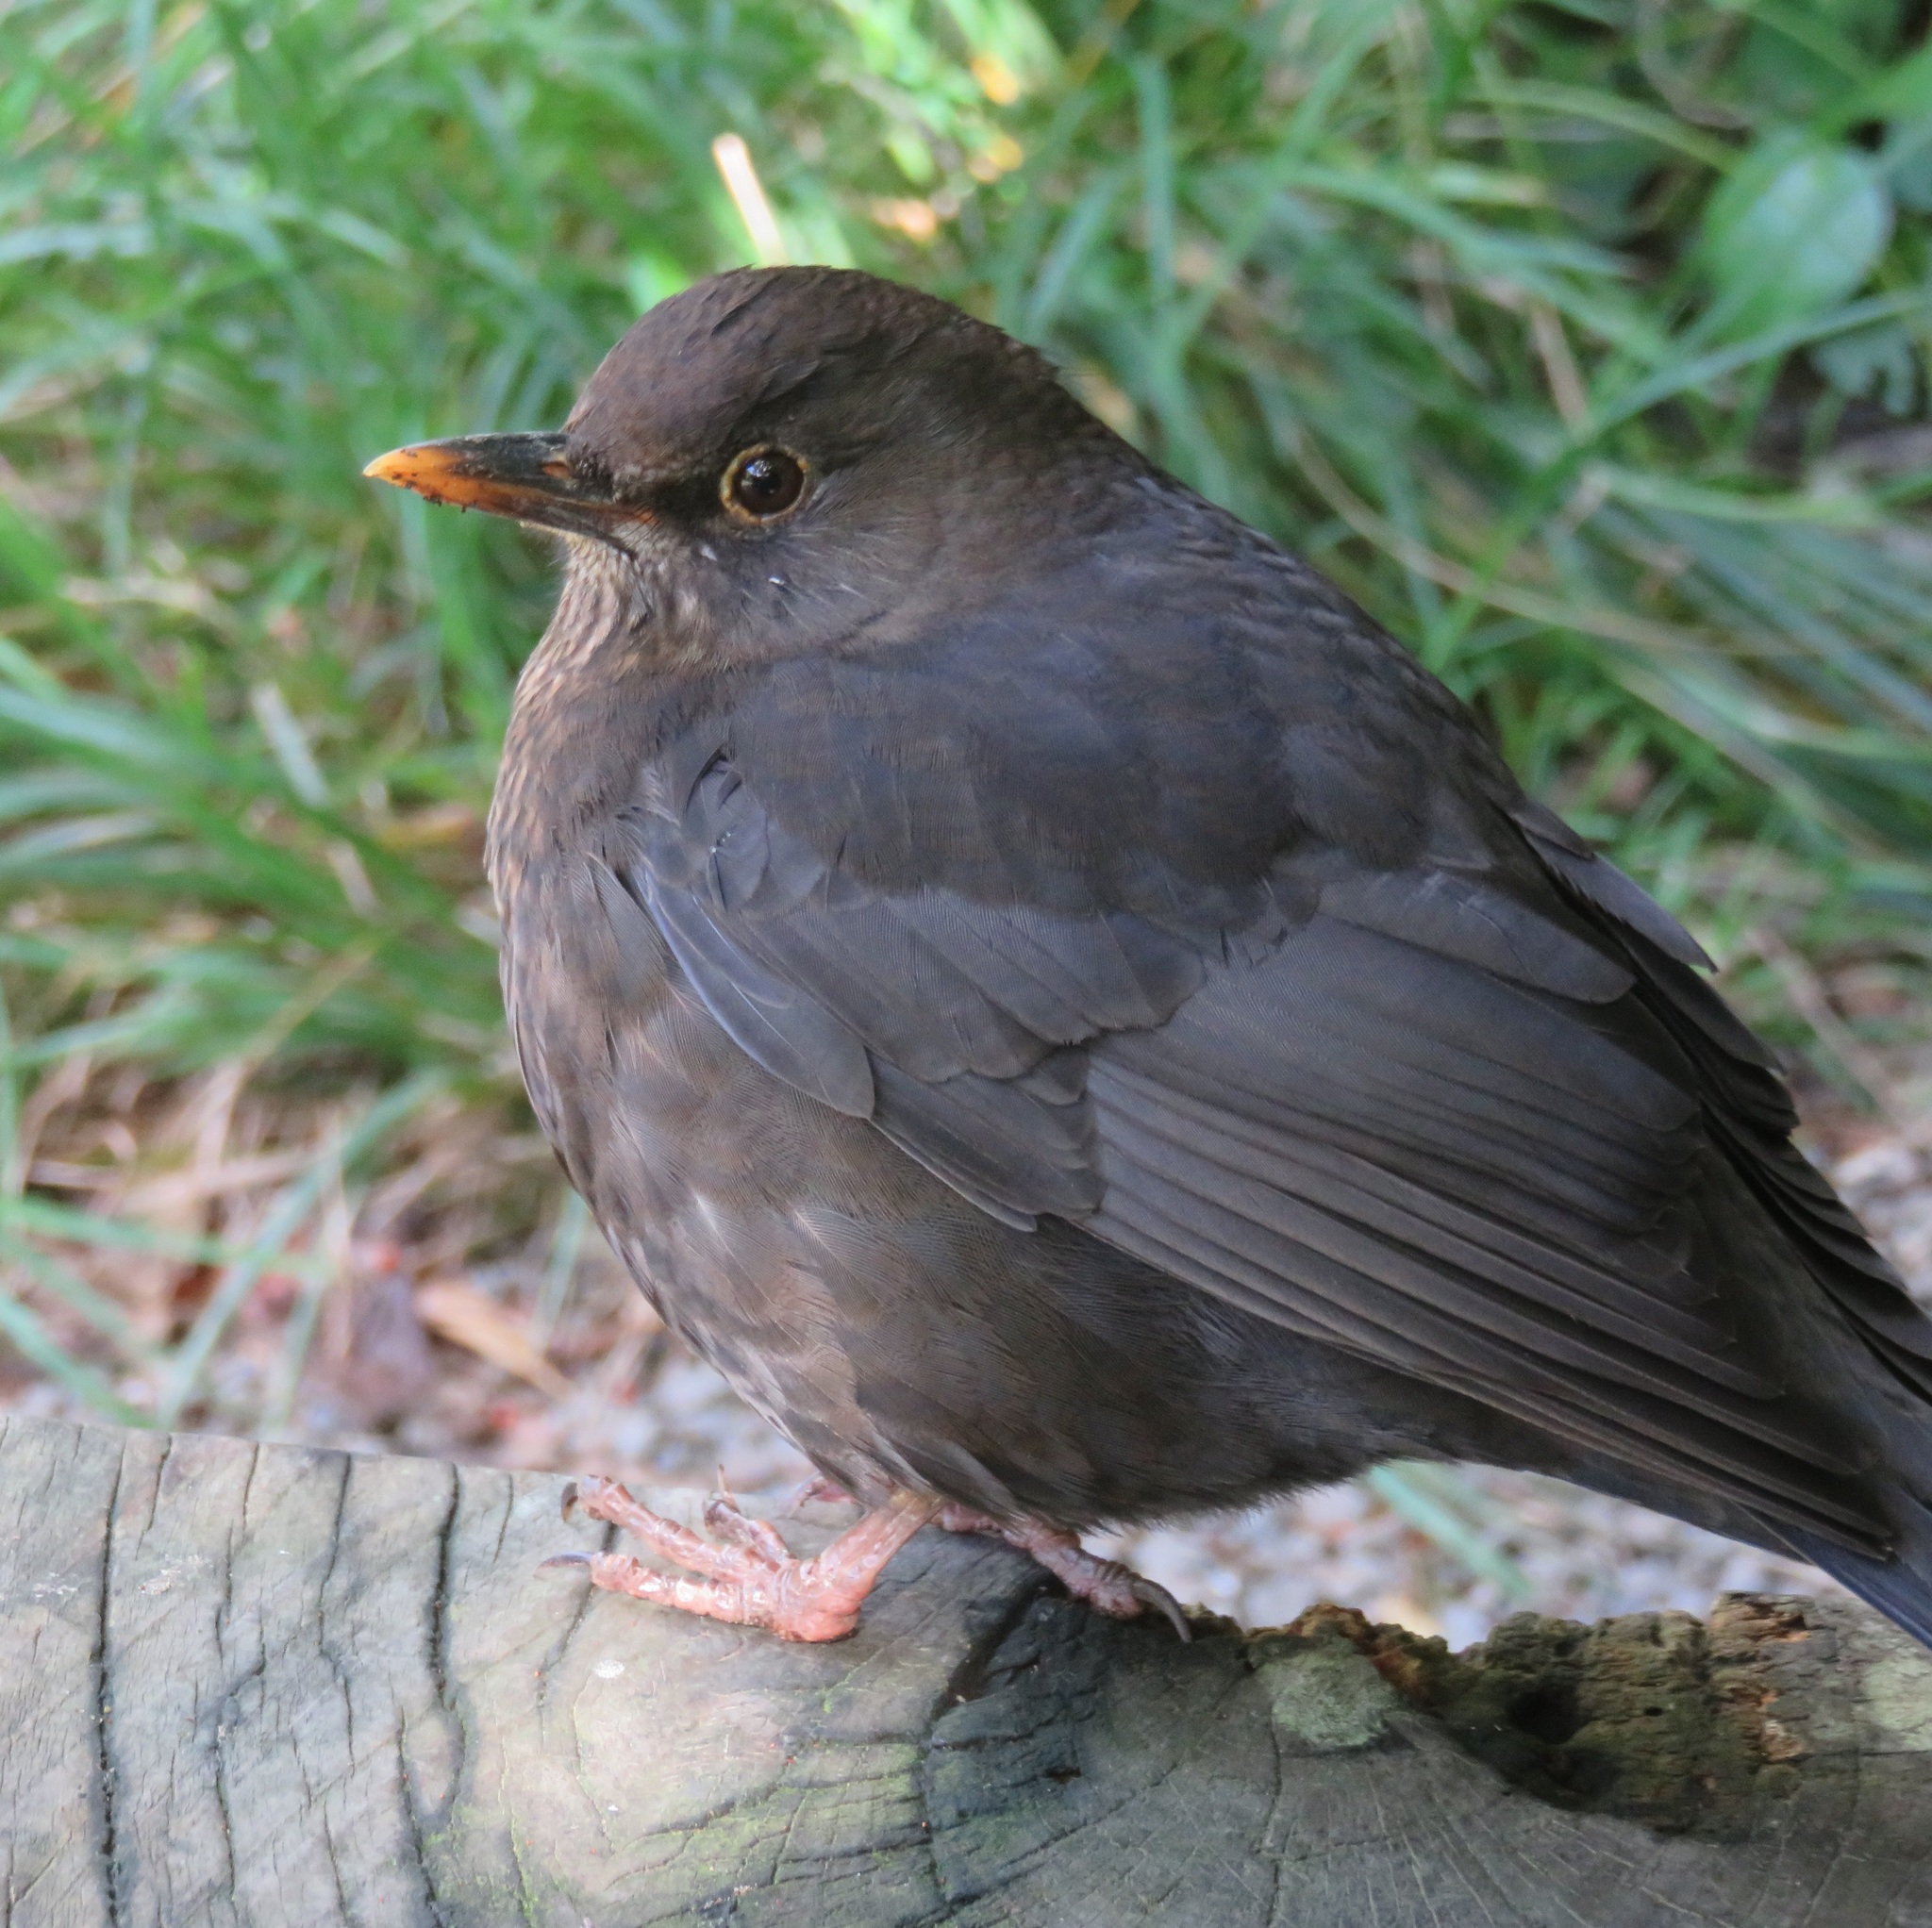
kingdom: Animalia
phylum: Chordata
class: Aves
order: Passeriformes
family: Turdidae
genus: Turdus
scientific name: Turdus merula
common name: Common blackbird
